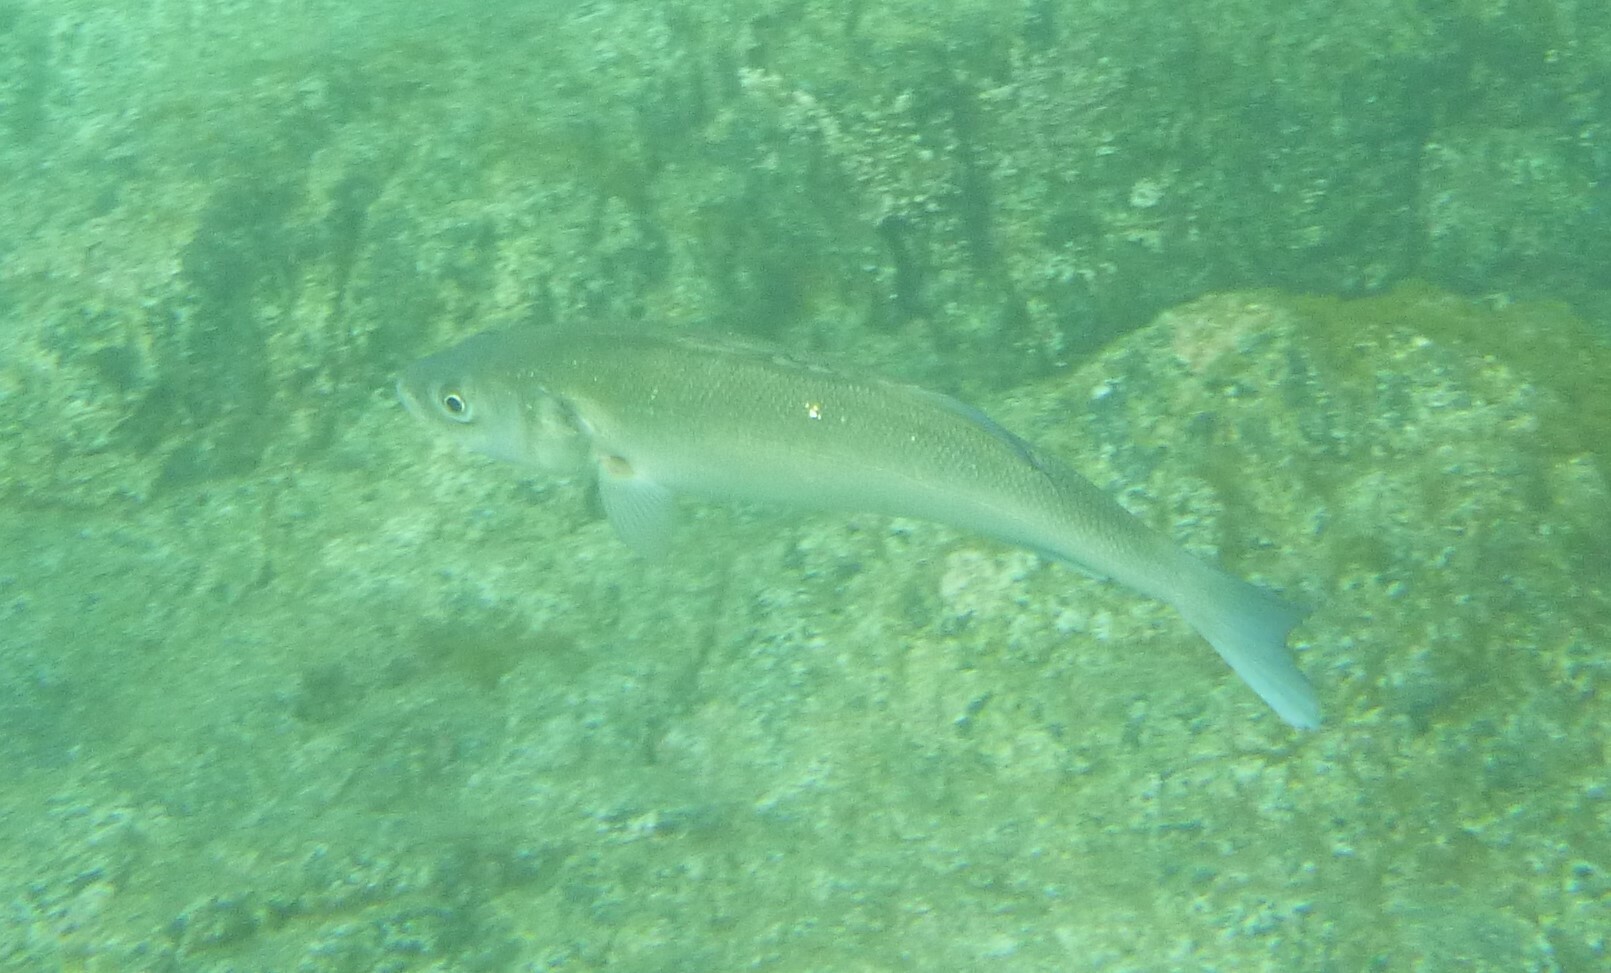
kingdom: Animalia
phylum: Chordata
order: Perciformes
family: Moronidae
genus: Dicentrarchus
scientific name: Dicentrarchus labrax
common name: European seabass
